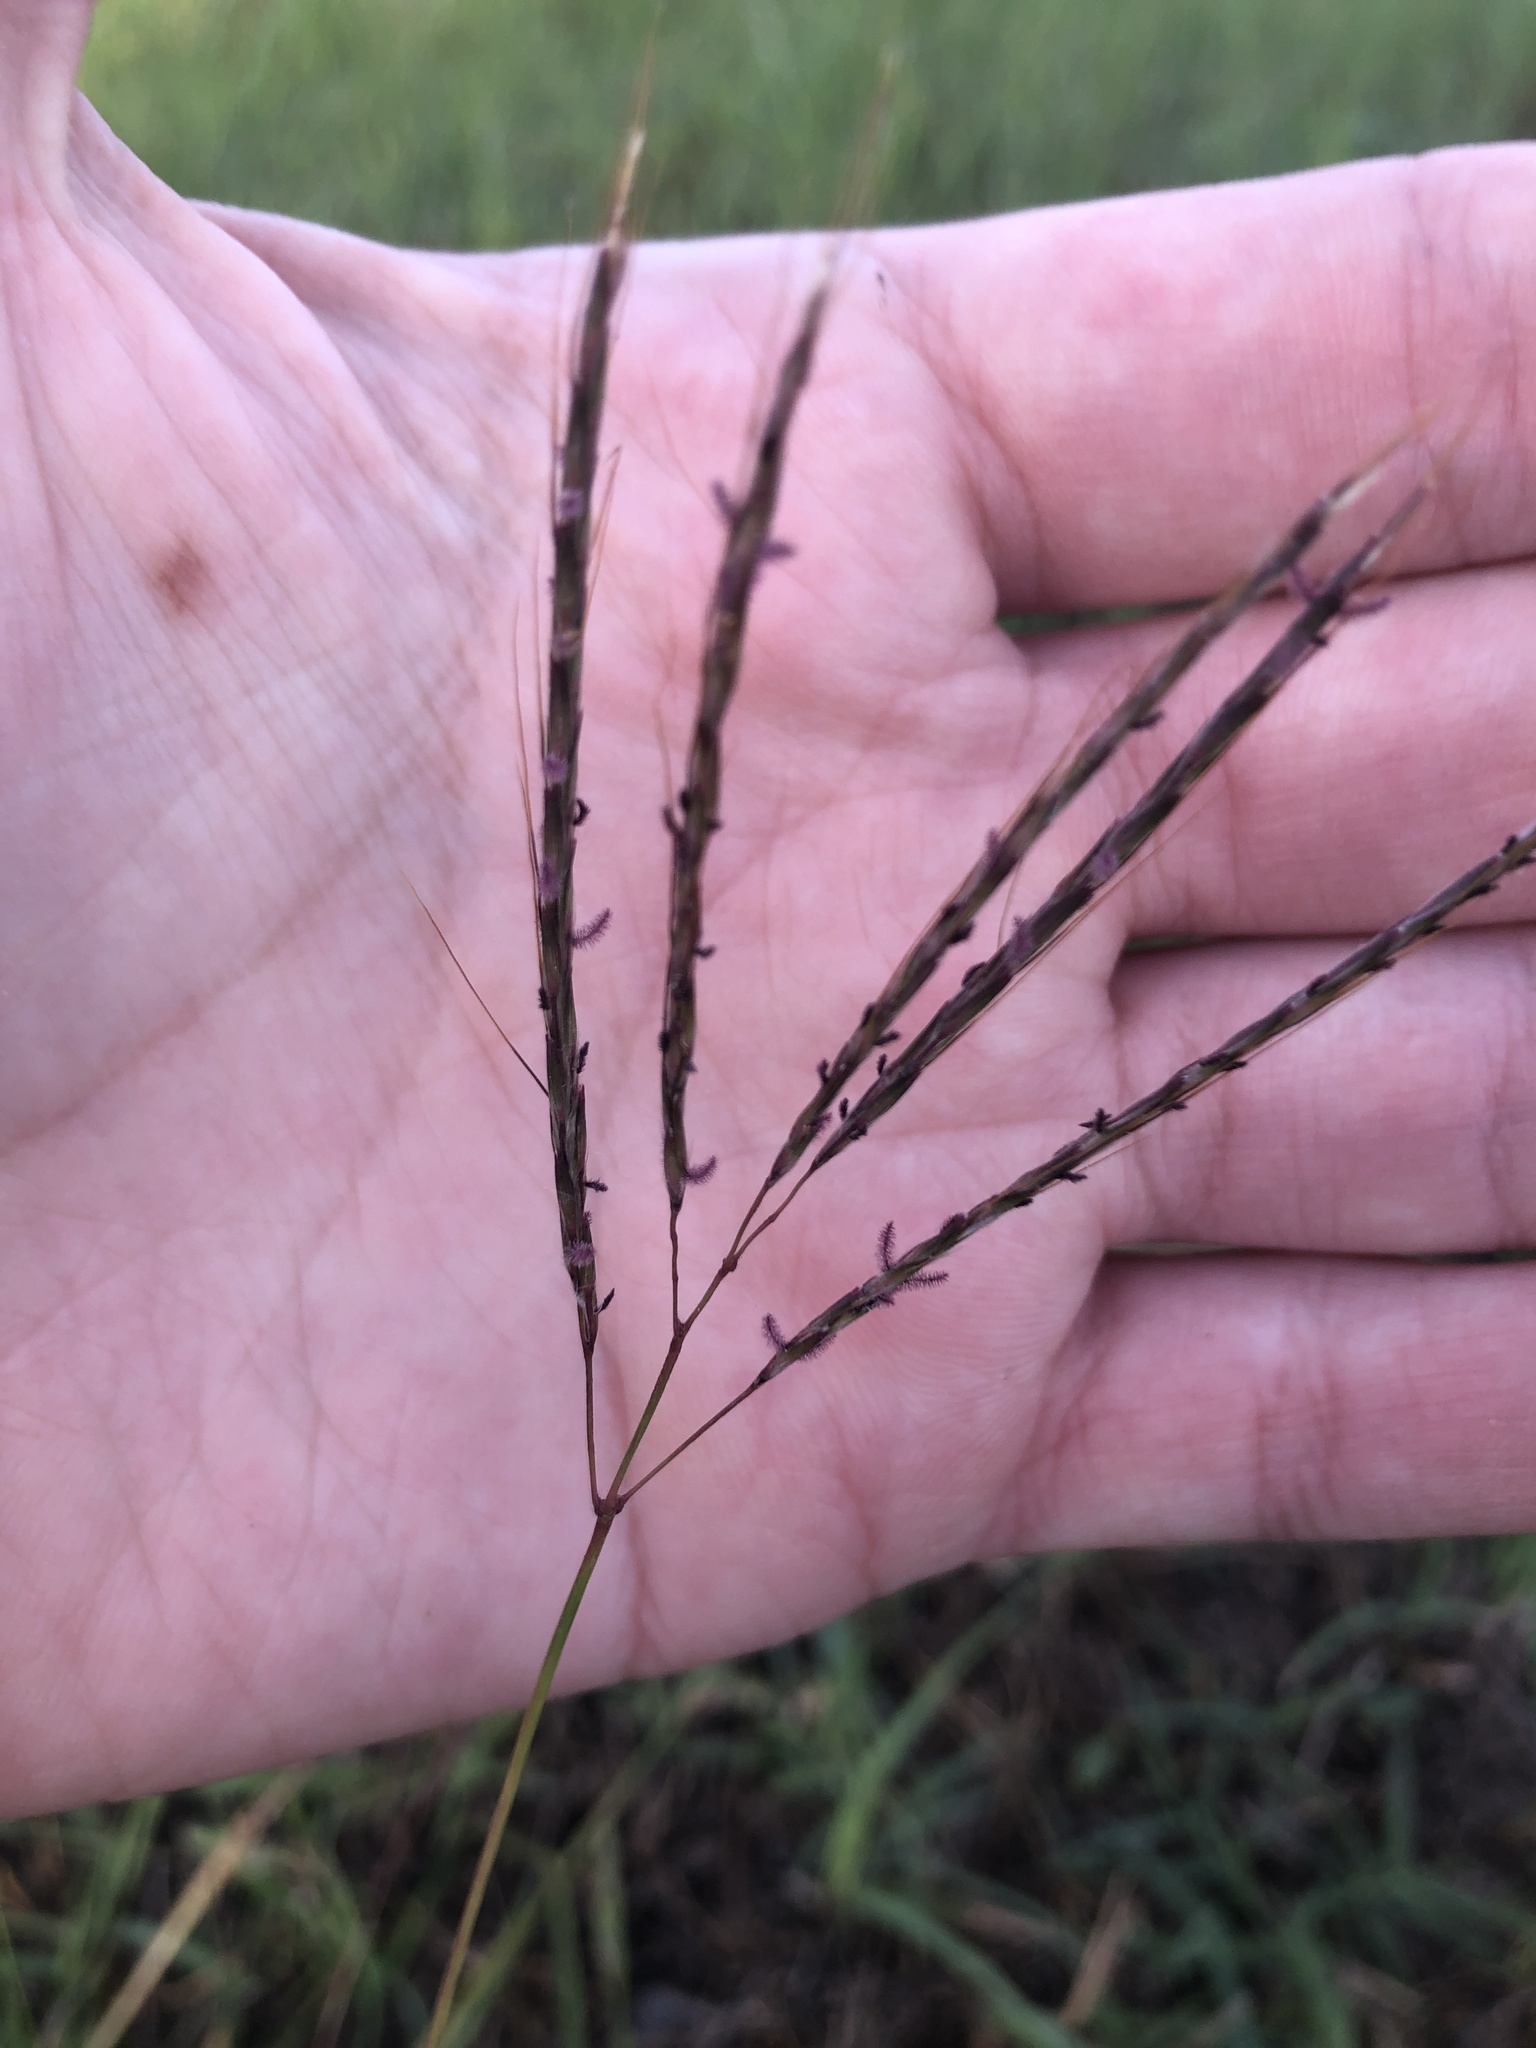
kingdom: Plantae
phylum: Tracheophyta
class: Liliopsida
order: Poales
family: Poaceae
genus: Bothriochloa
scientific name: Bothriochloa ischaemum
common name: Yellow bluestem
